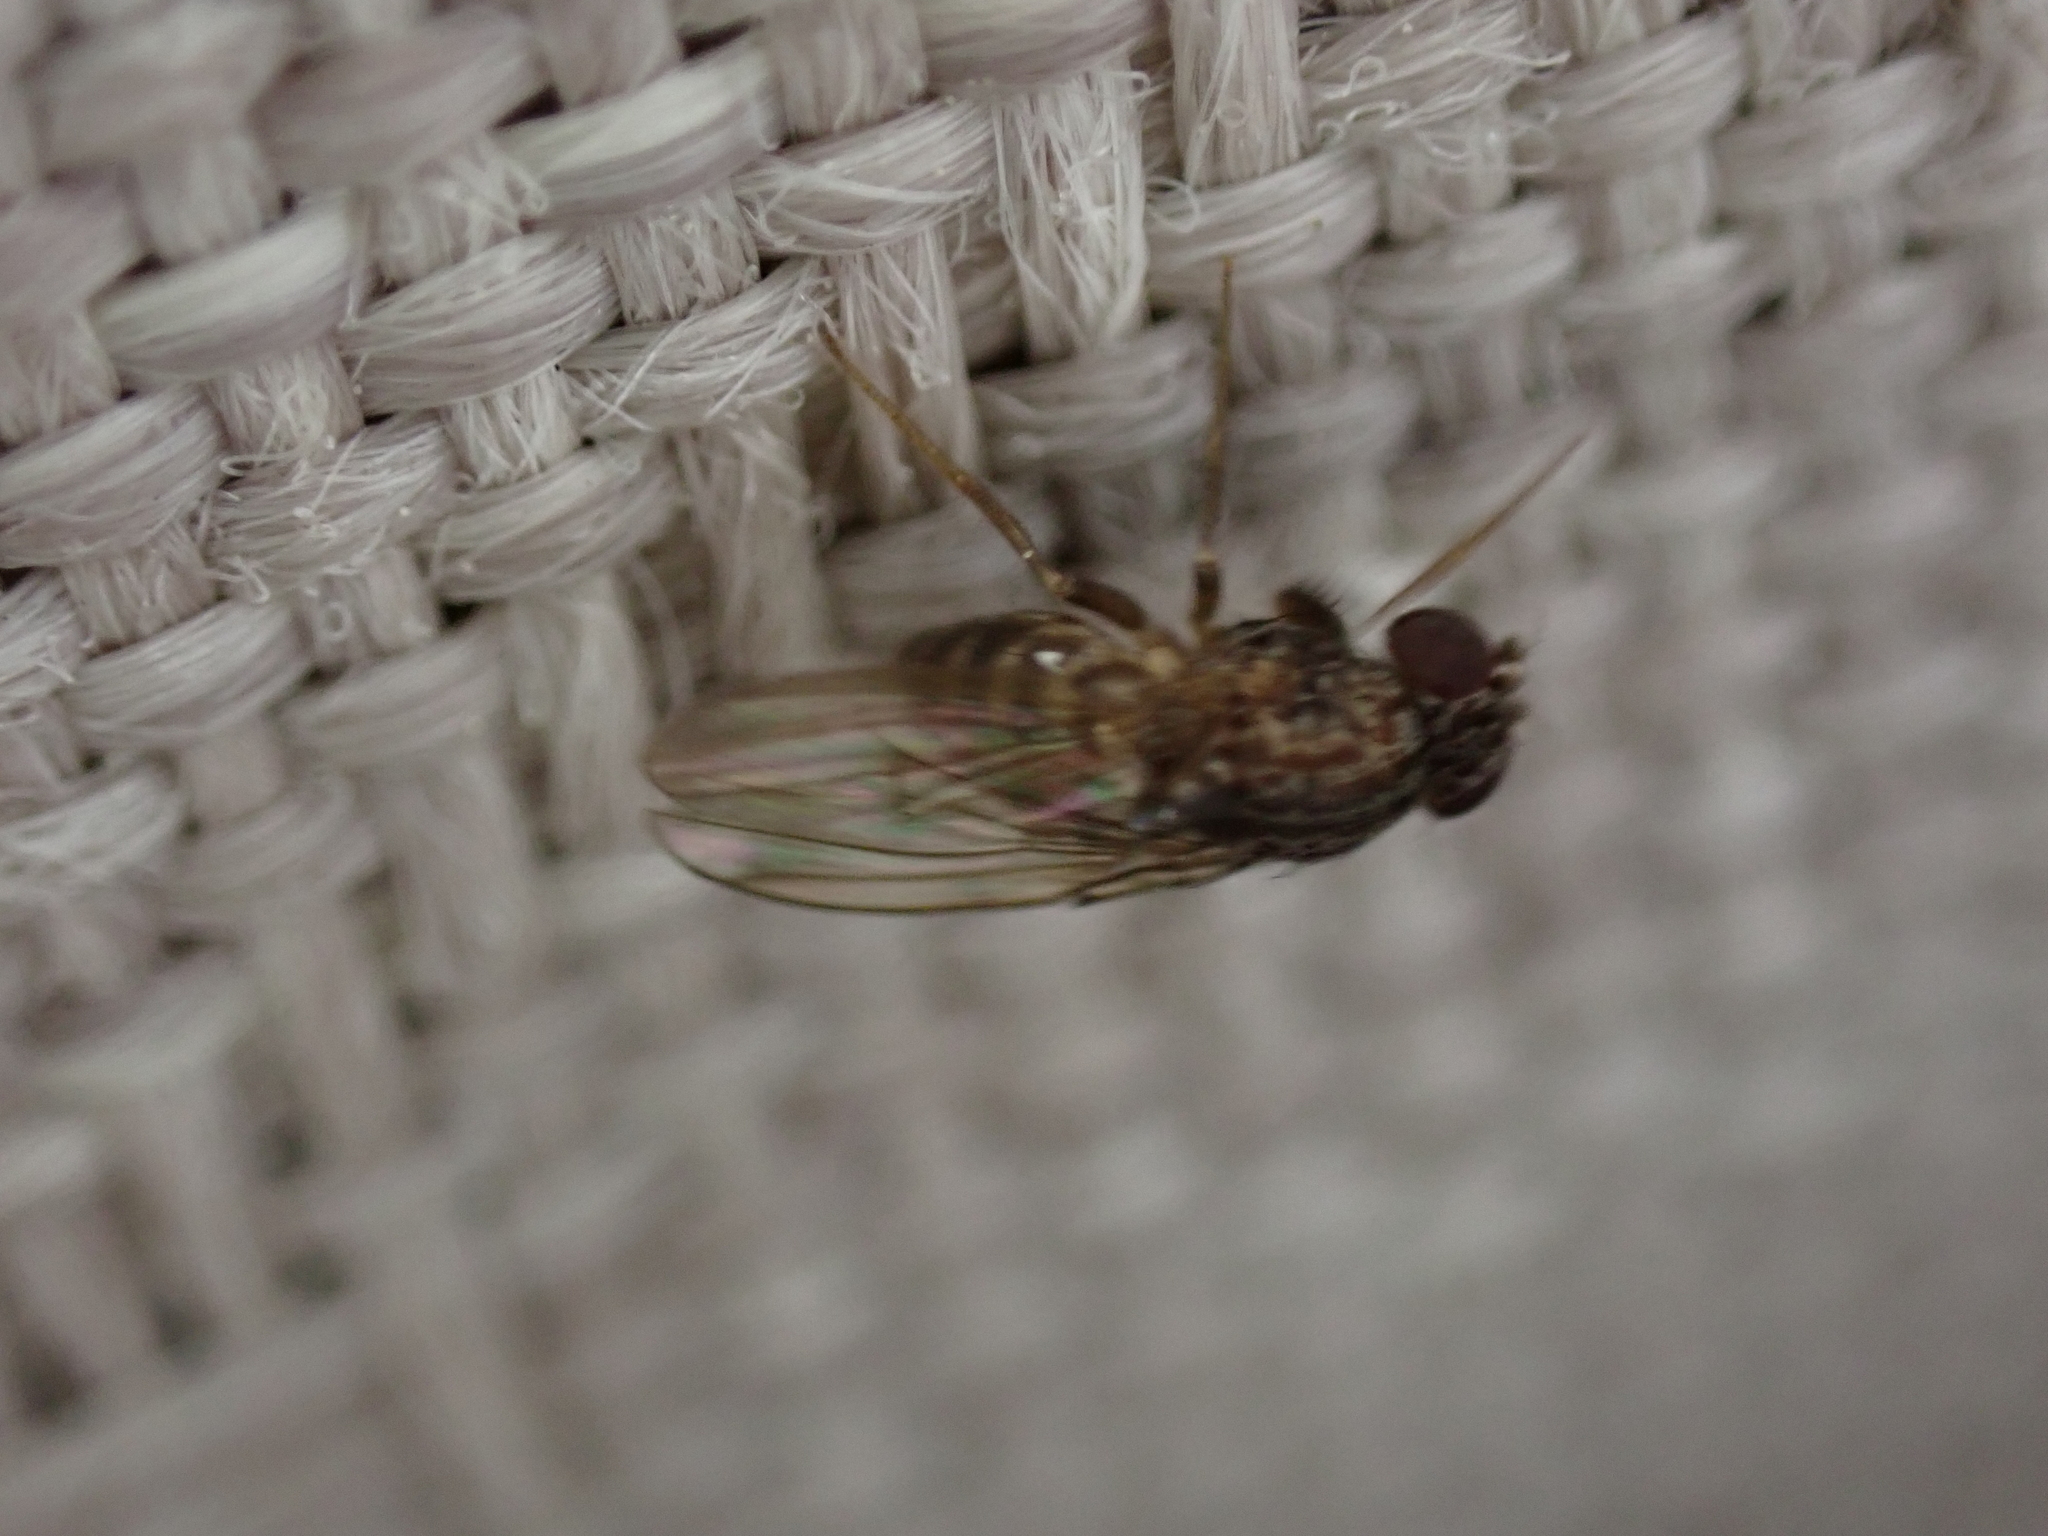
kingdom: Animalia
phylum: Arthropoda
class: Insecta
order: Diptera
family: Drosophilidae
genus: Drosophila
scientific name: Drosophila repleta
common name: Pomace fly
